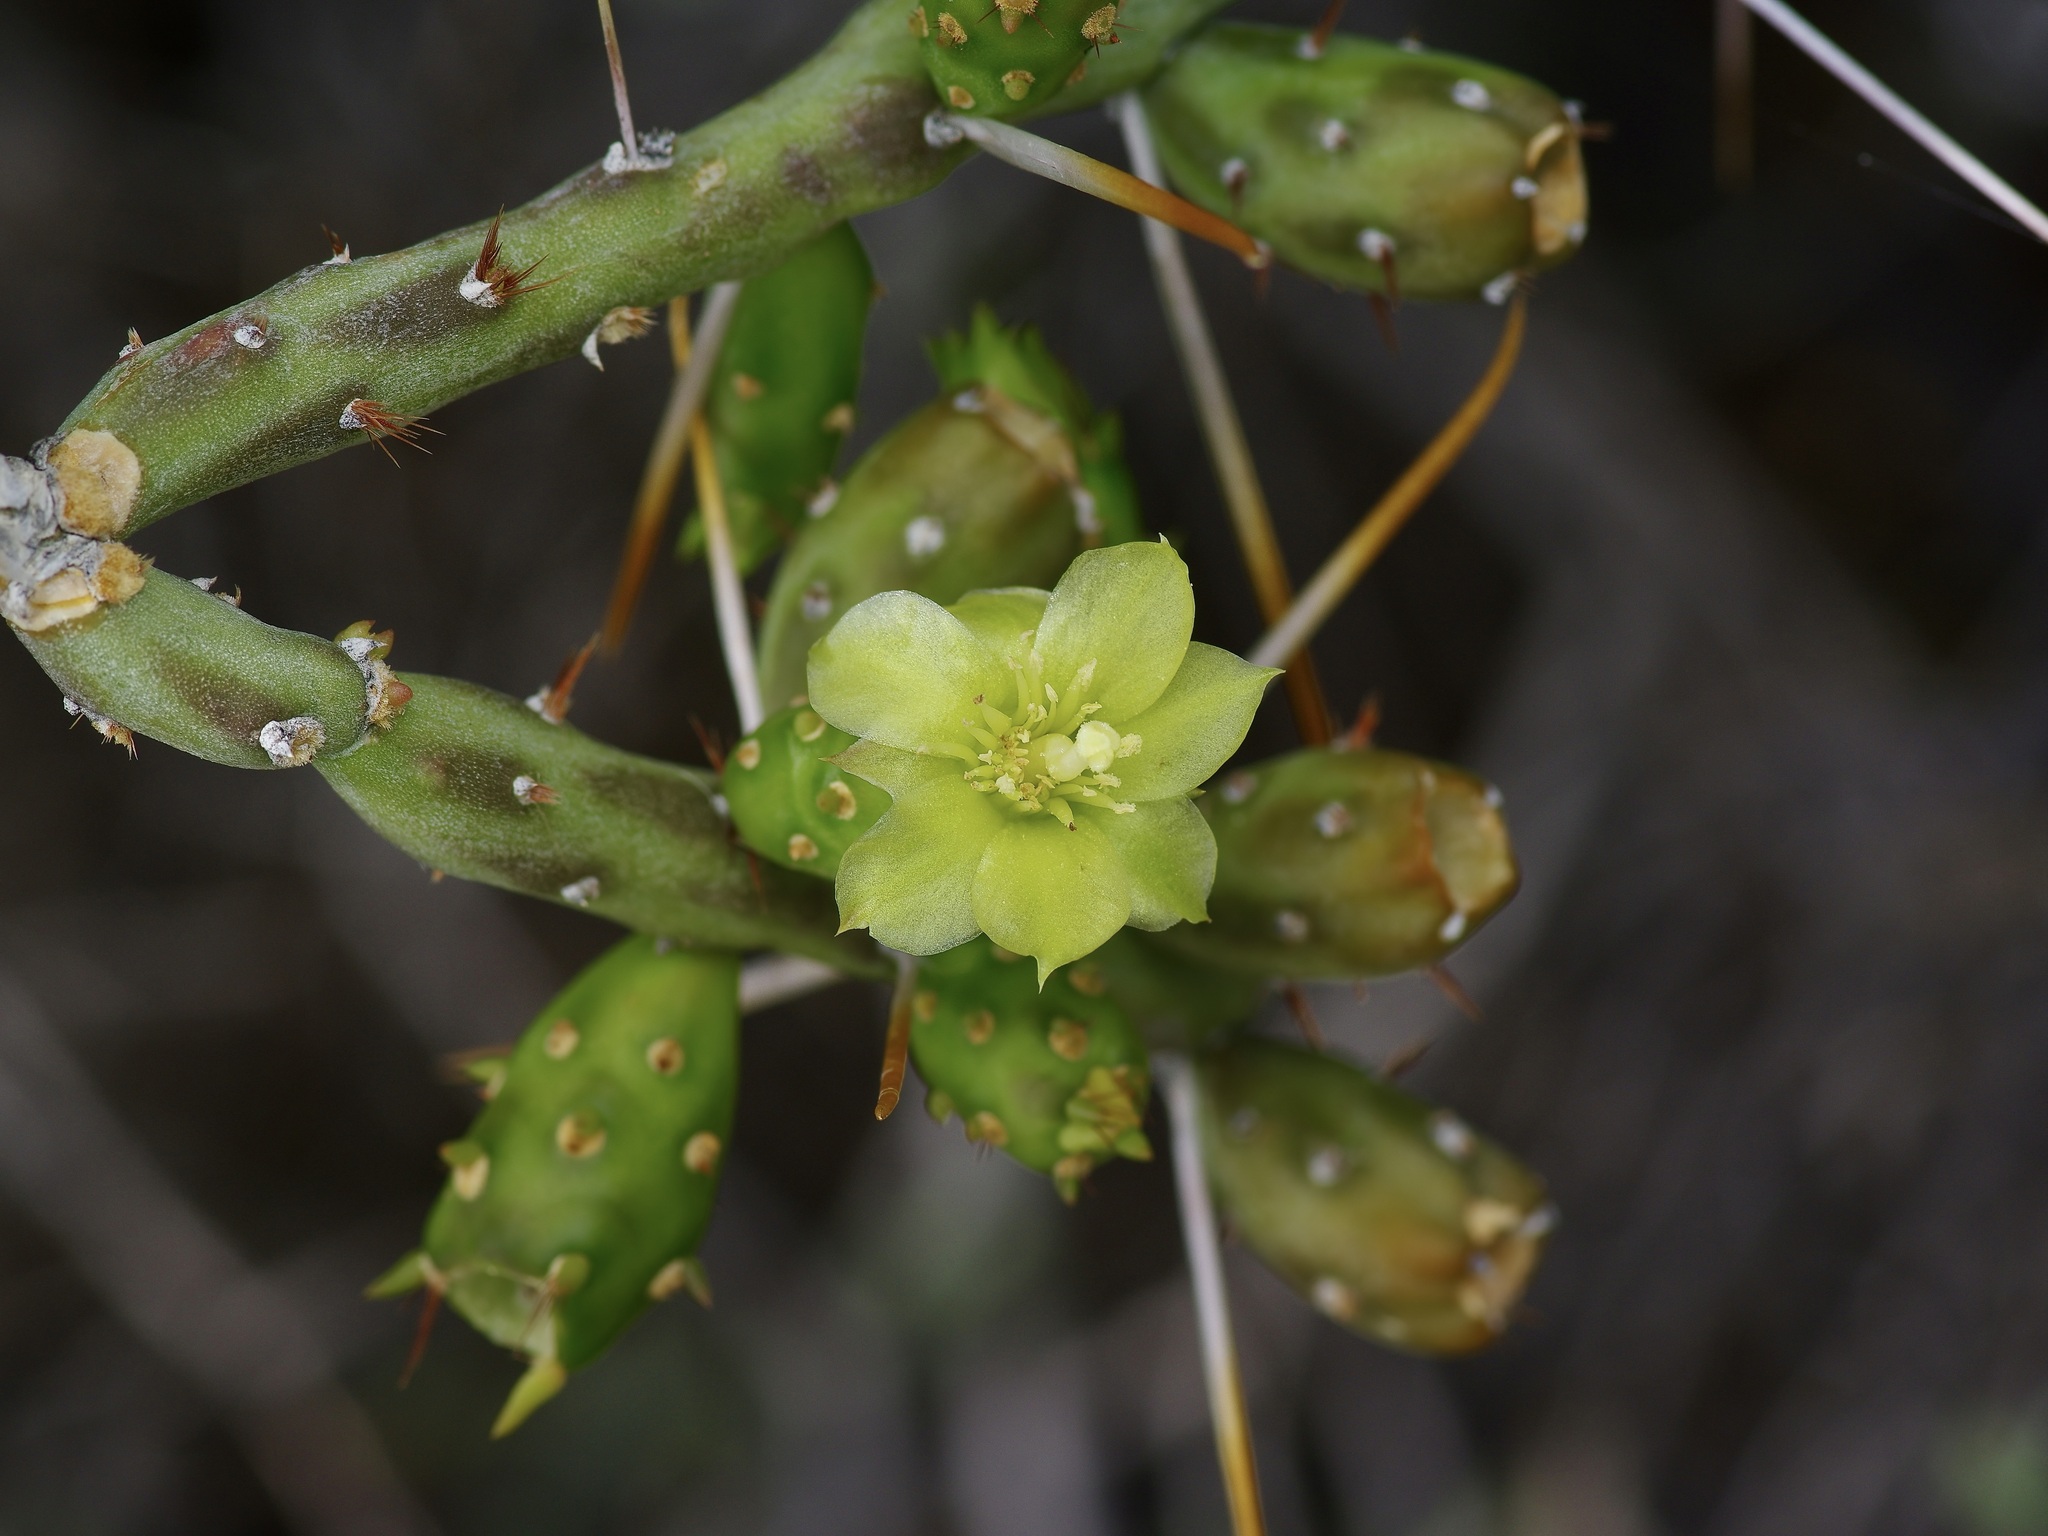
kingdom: Plantae
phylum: Tracheophyta
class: Magnoliopsida
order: Caryophyllales
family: Cactaceae
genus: Cylindropuntia
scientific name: Cylindropuntia leptocaulis
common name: Christmas cactus
